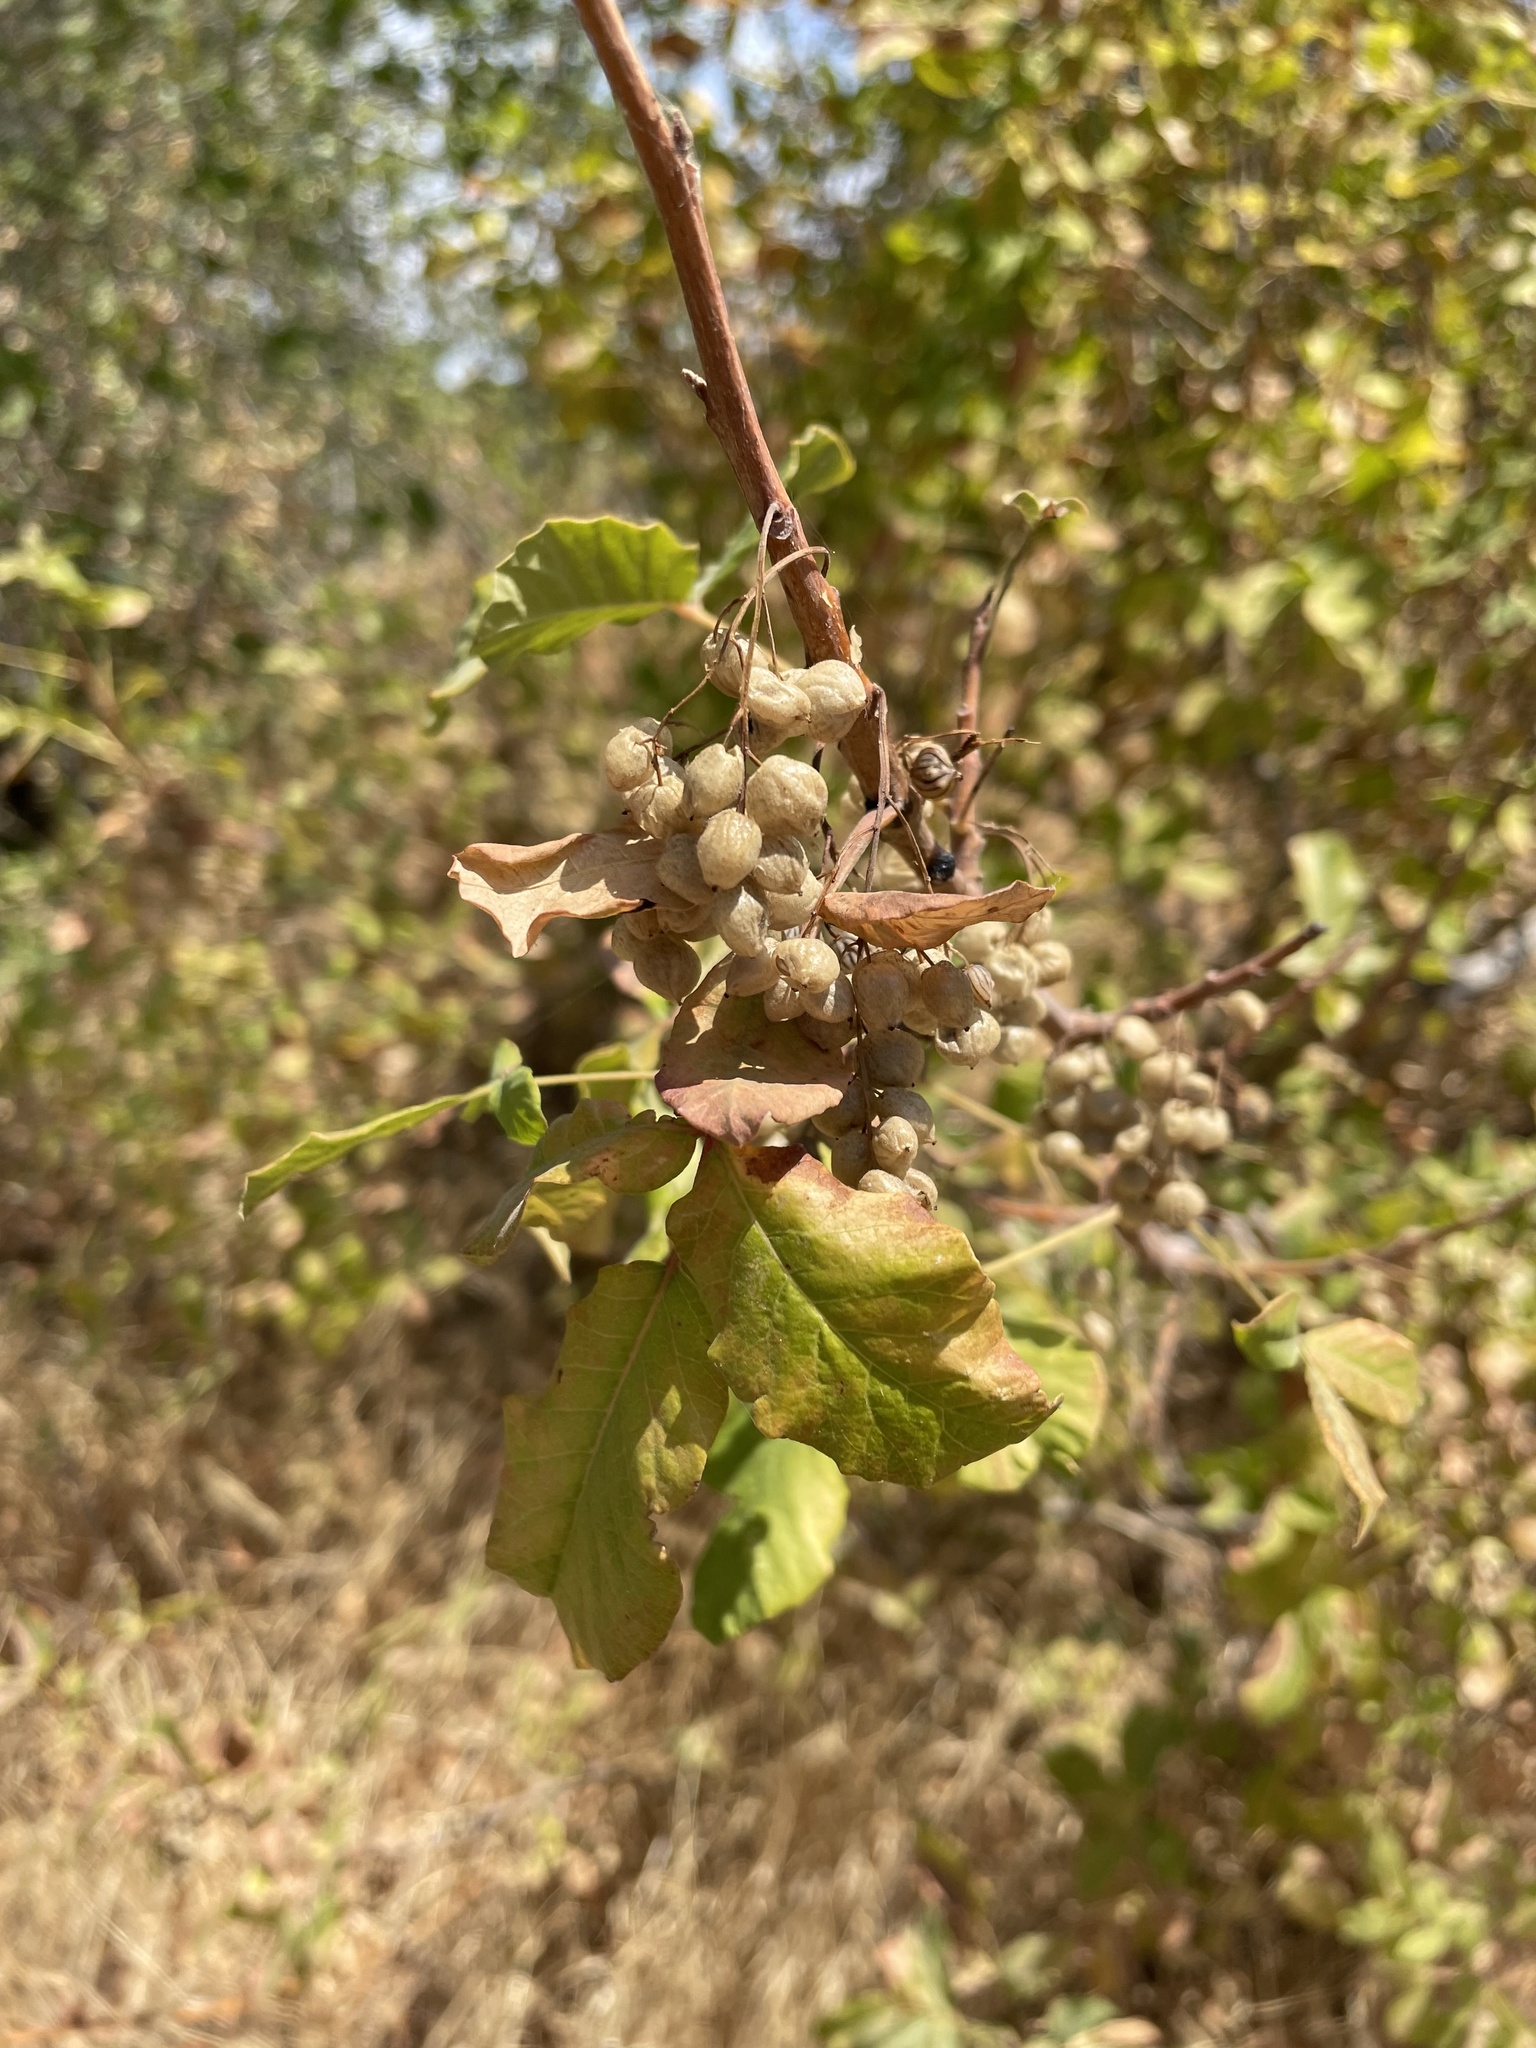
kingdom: Plantae
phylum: Tracheophyta
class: Magnoliopsida
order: Sapindales
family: Anacardiaceae
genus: Toxicodendron
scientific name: Toxicodendron diversilobum
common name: Pacific poison-oak
